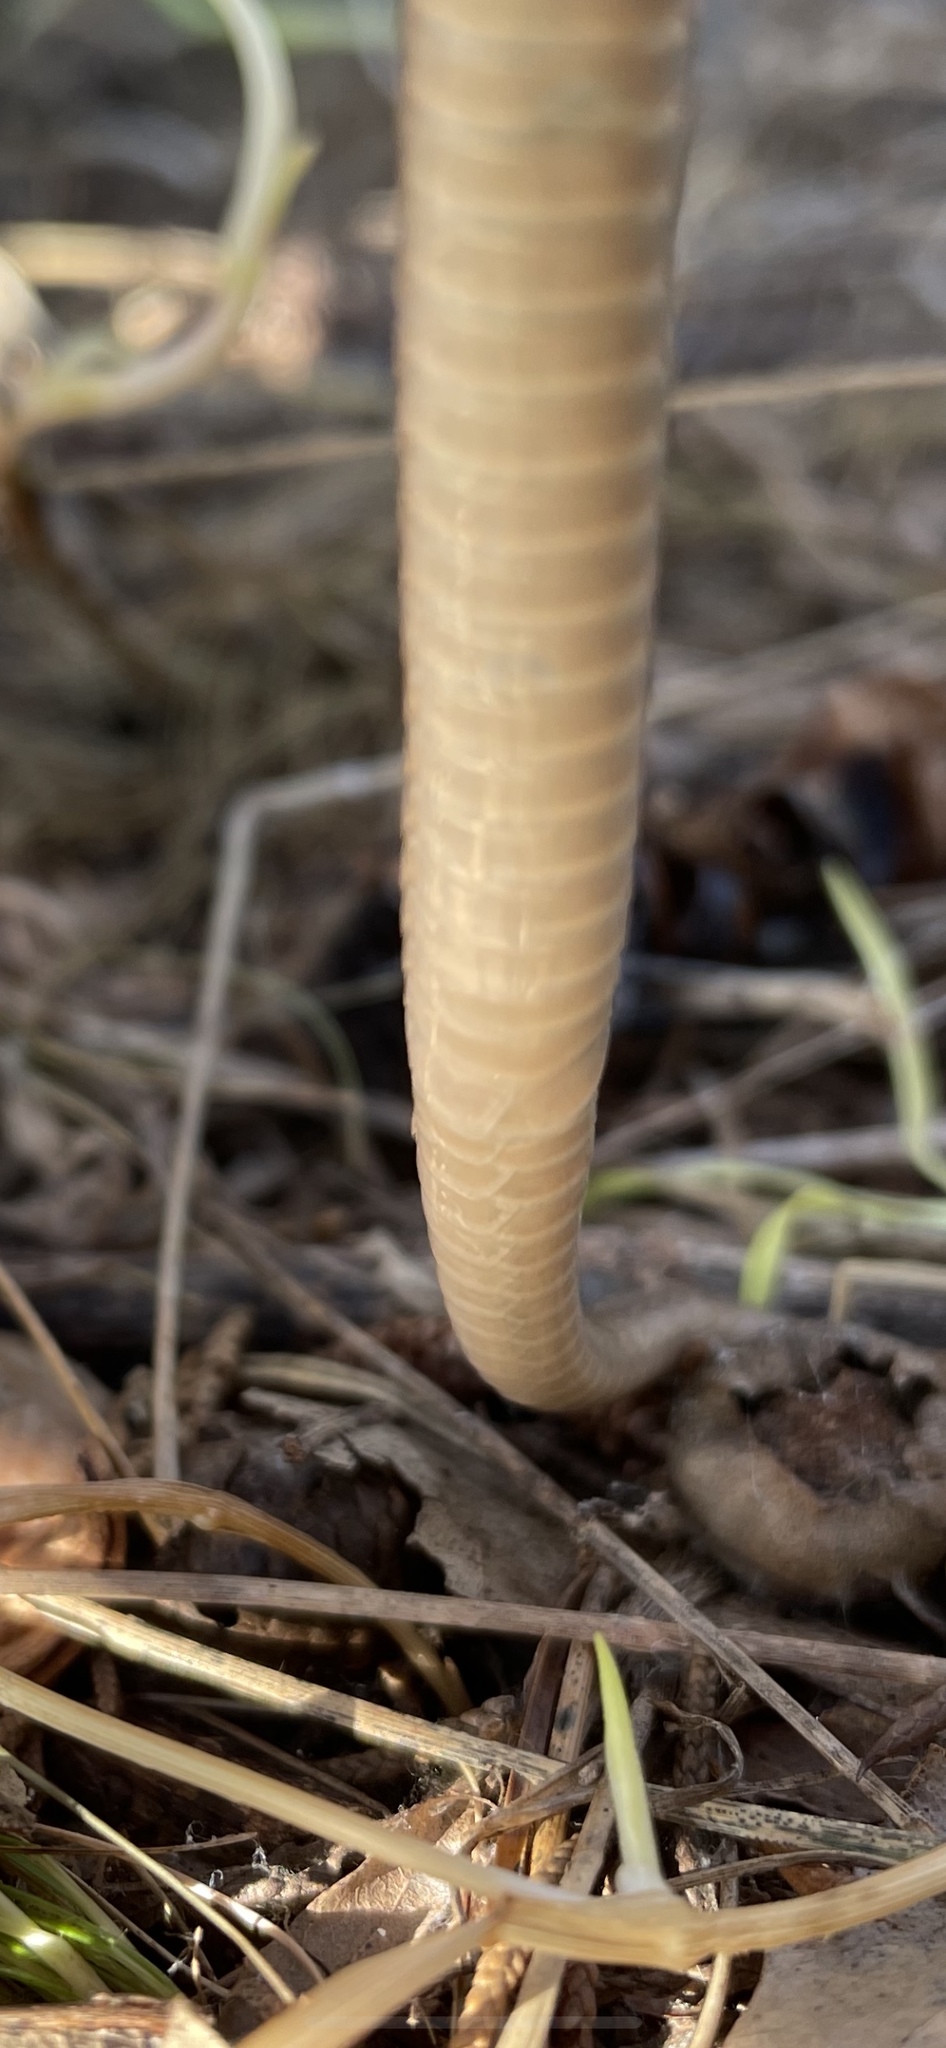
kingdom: Animalia
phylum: Chordata
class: Squamata
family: Colubridae
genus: Storeria
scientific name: Storeria dekayi
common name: (dekay’s) brown snake
